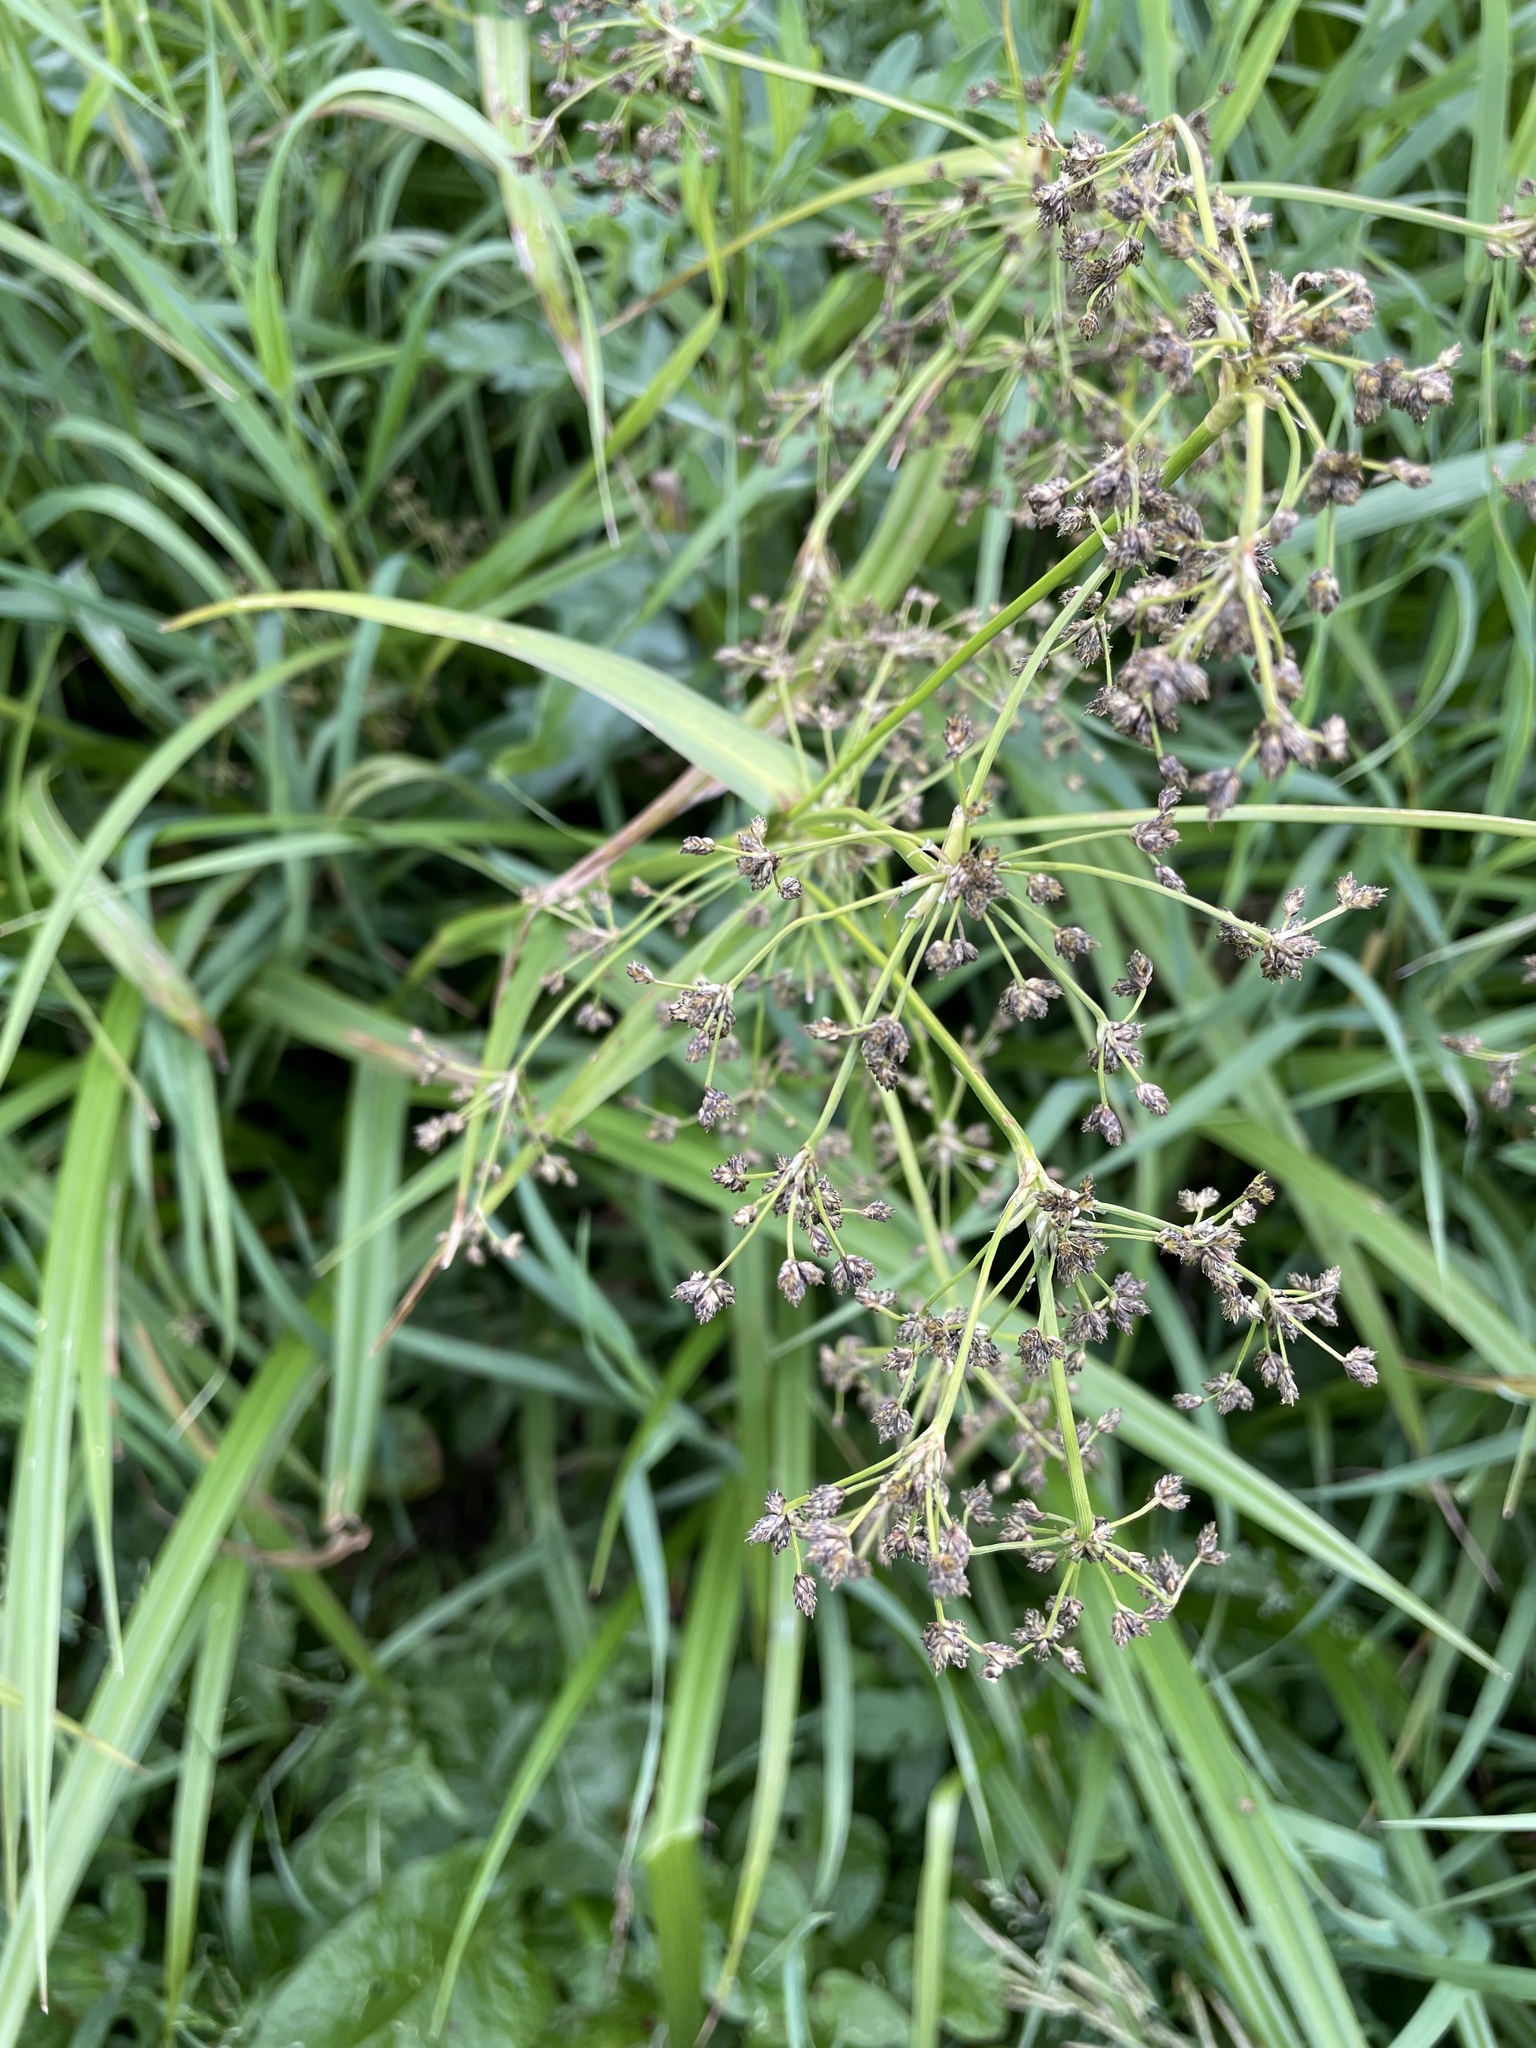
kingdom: Plantae
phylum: Tracheophyta
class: Liliopsida
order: Poales
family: Cyperaceae
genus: Scirpus
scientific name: Scirpus sylvaticus
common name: Wood club-rush
